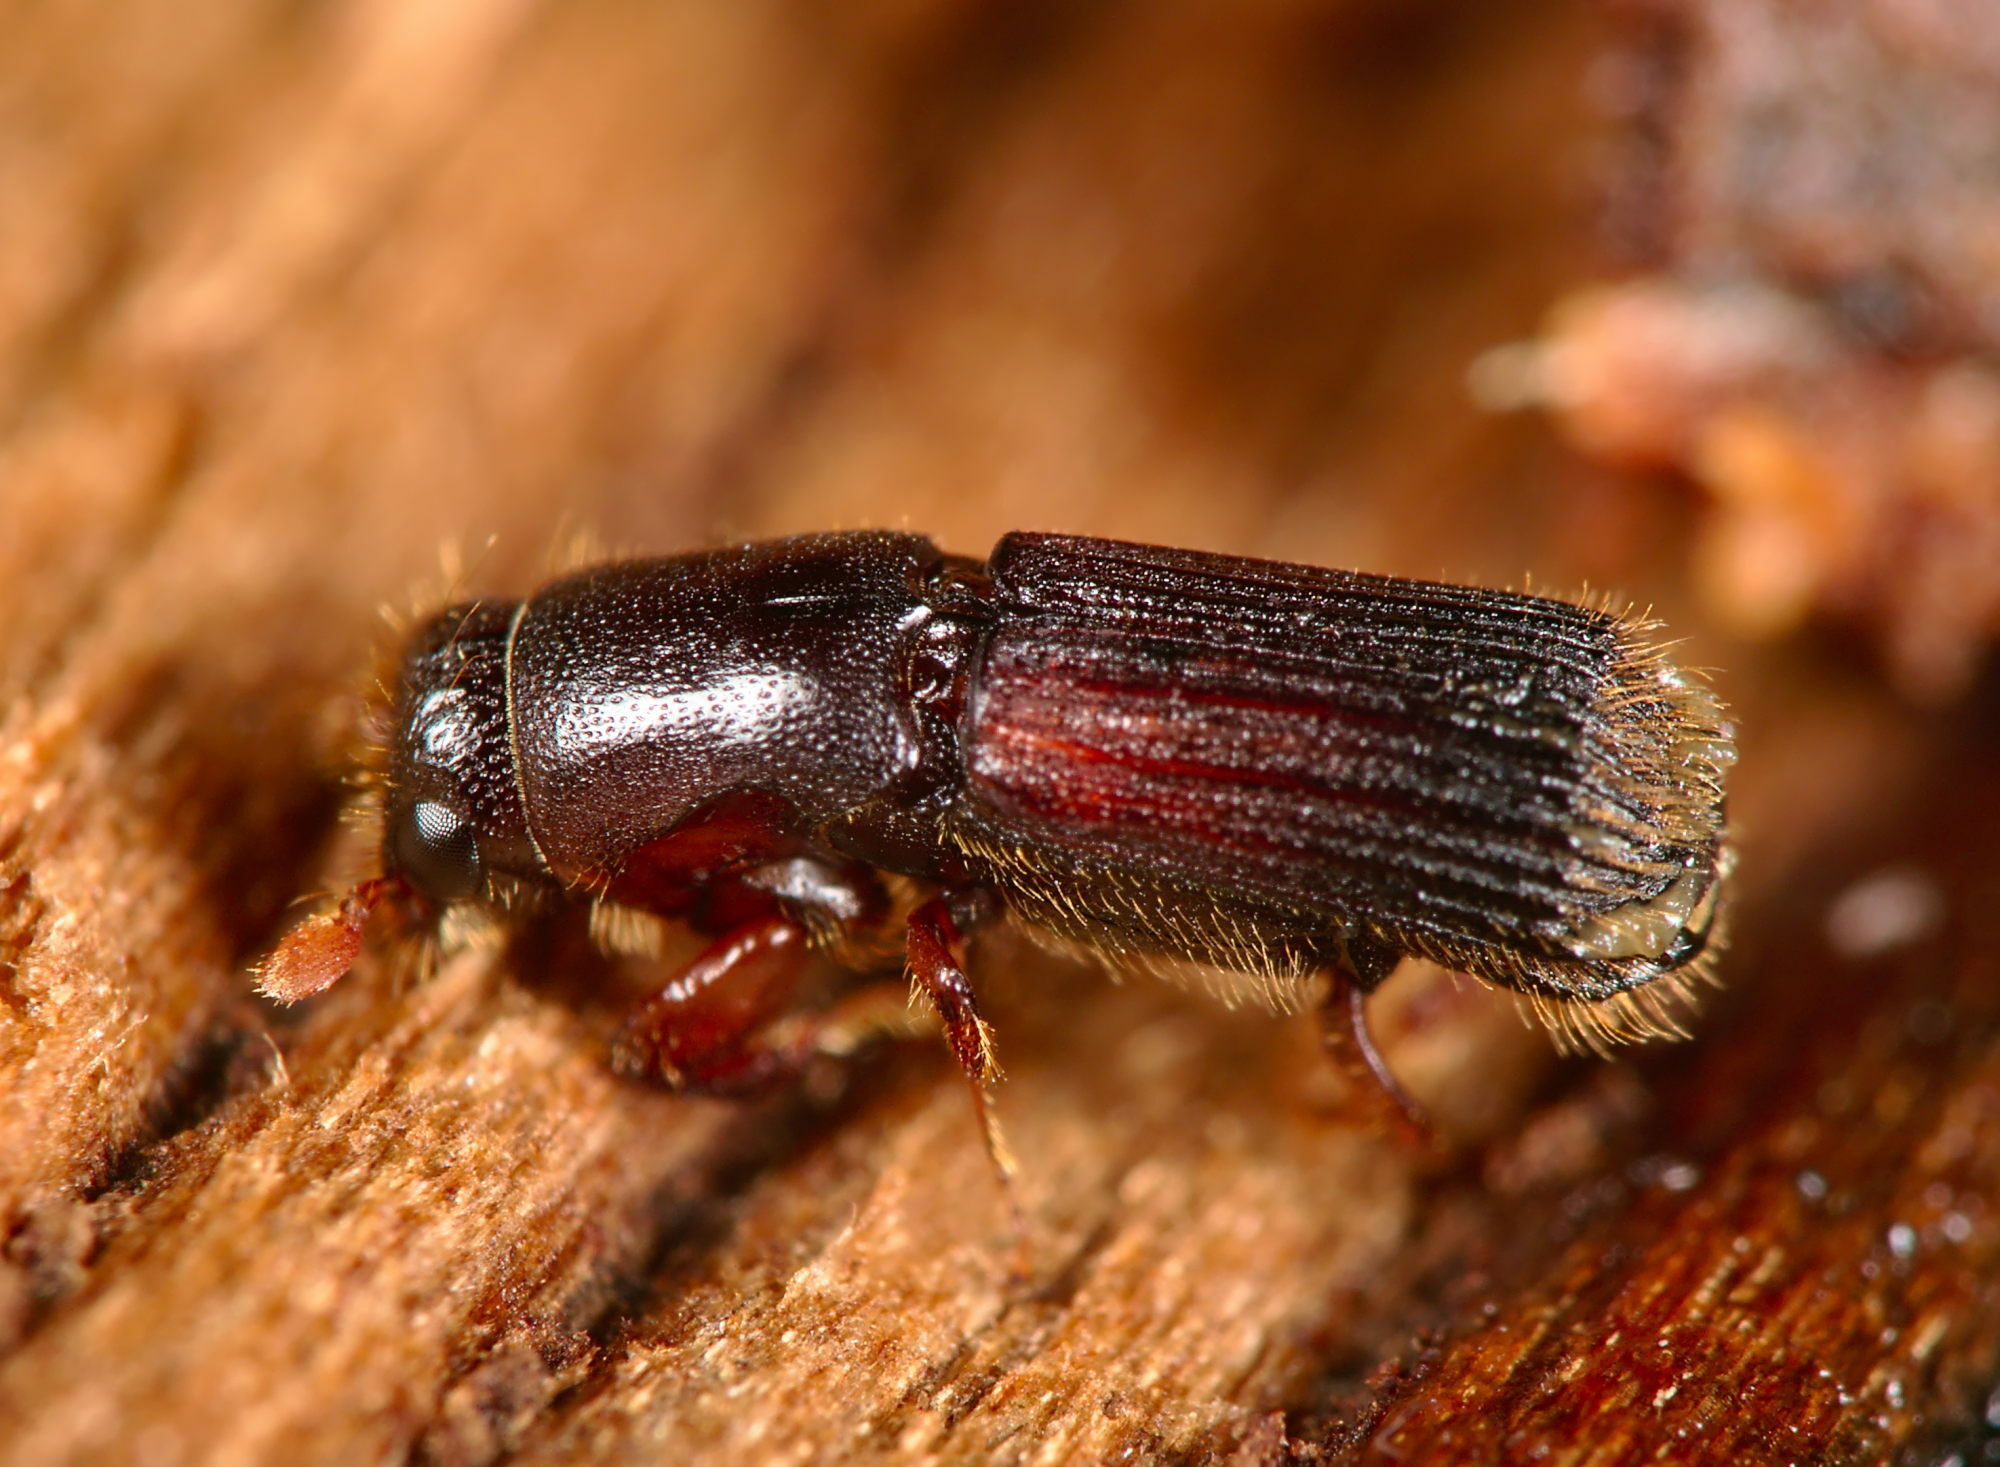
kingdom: Animalia
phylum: Arthropoda
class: Insecta
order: Coleoptera
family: Curculionidae
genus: Platypus
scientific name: Platypus cylindrus
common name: Pinhole borer
